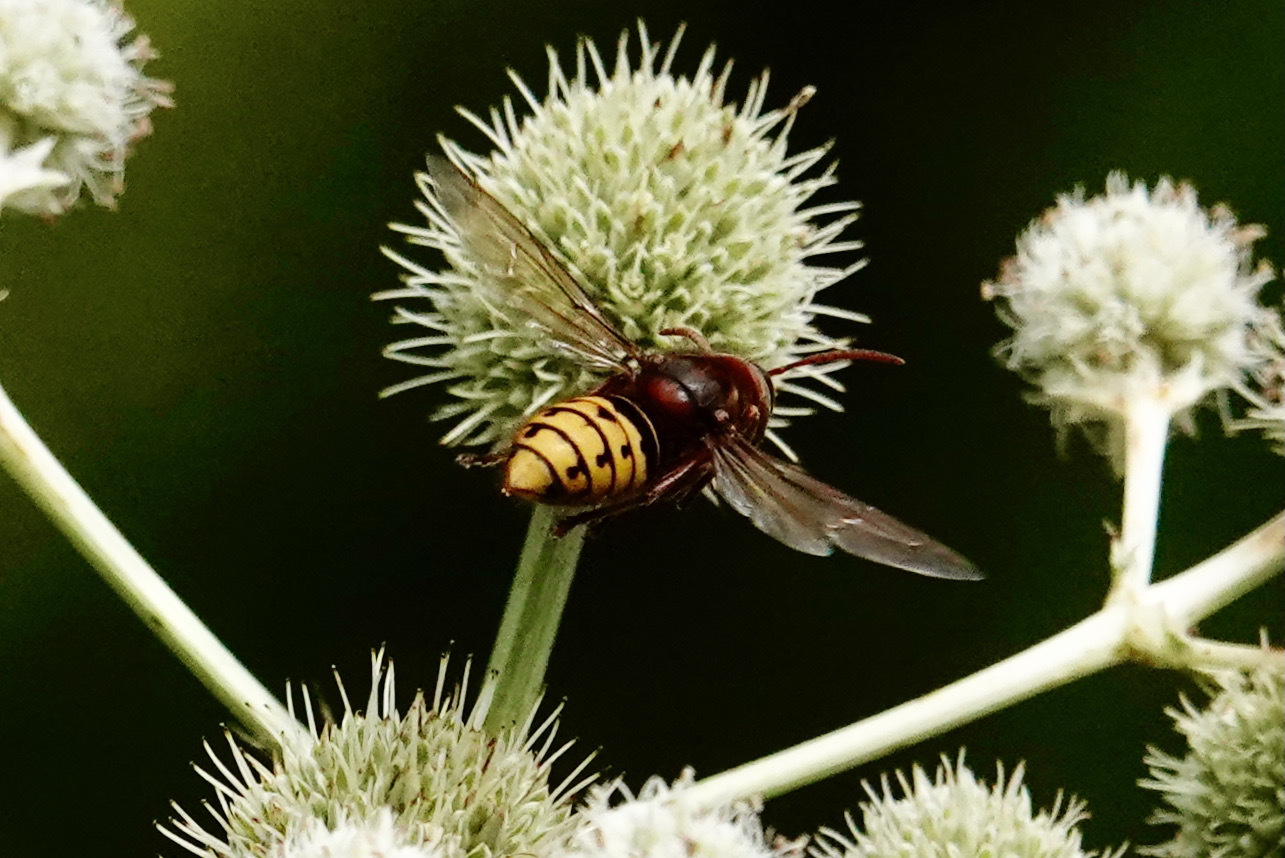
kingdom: Animalia
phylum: Arthropoda
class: Insecta
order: Hymenoptera
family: Vespidae
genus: Vespa
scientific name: Vespa crabro
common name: Hornet
